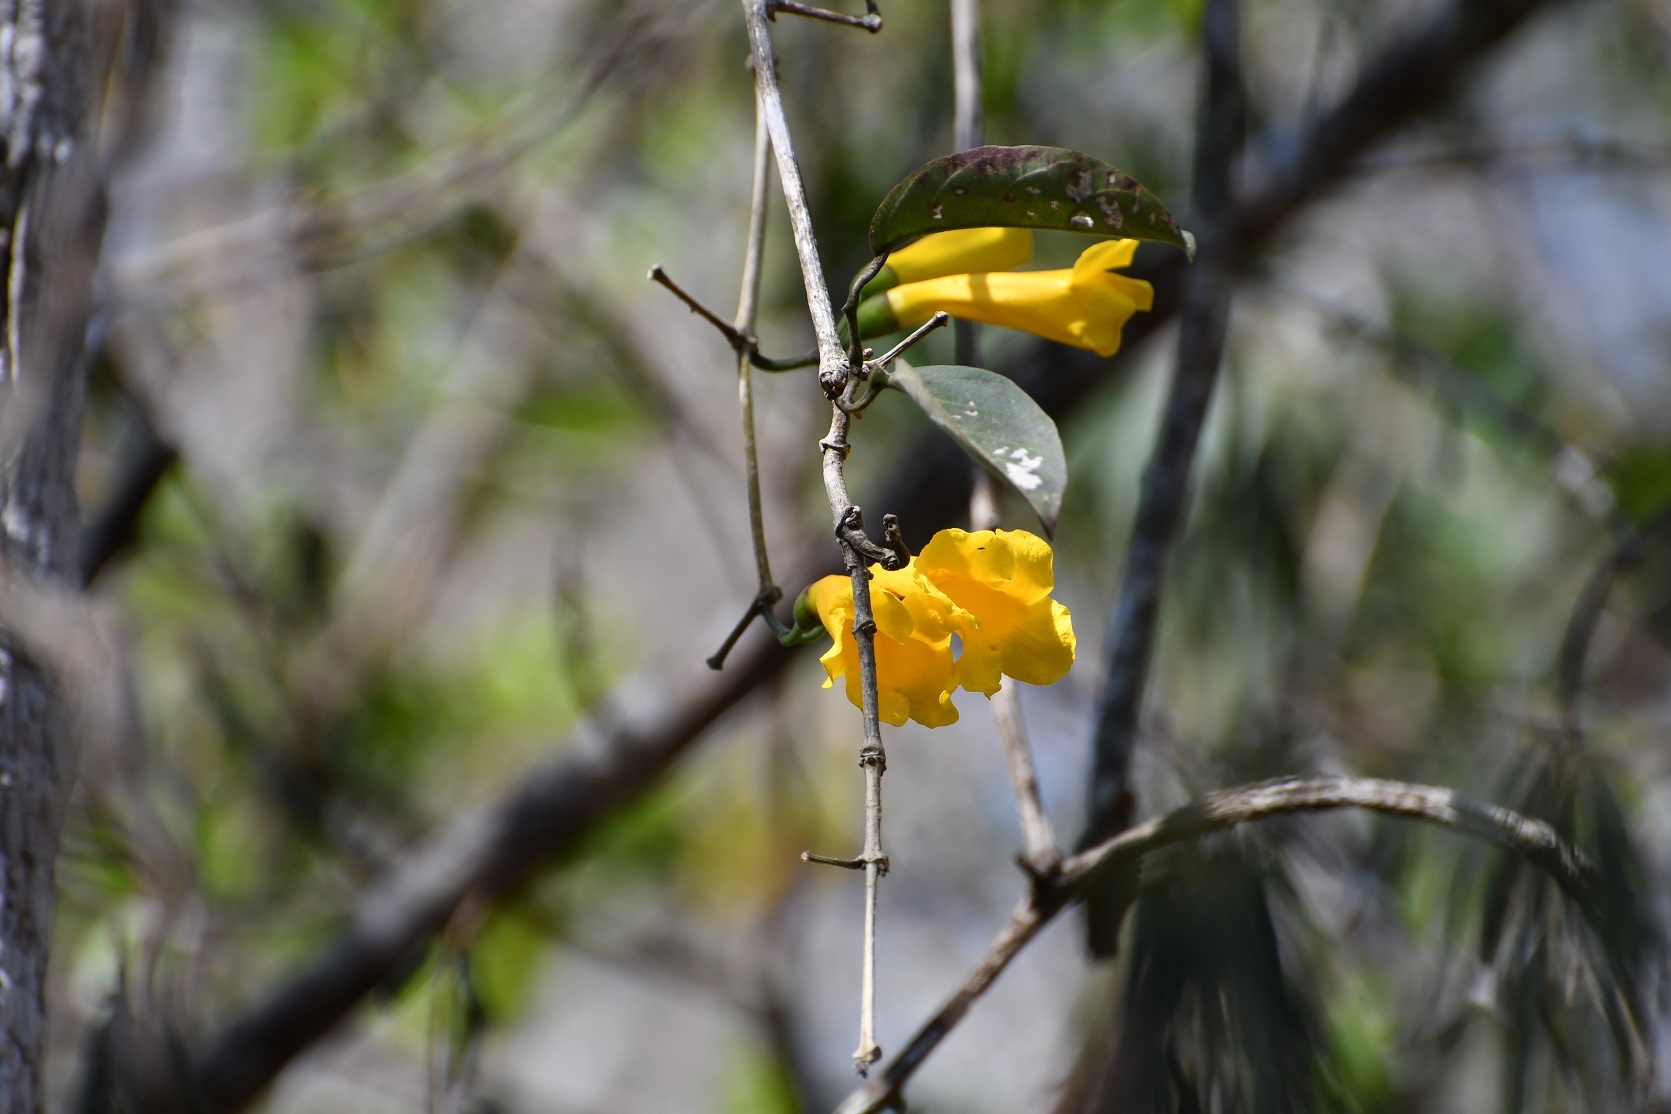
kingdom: Plantae
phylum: Tracheophyta
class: Magnoliopsida
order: Lamiales
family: Bignoniaceae
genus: Anemopaegma
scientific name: Anemopaegma chrysanthum
